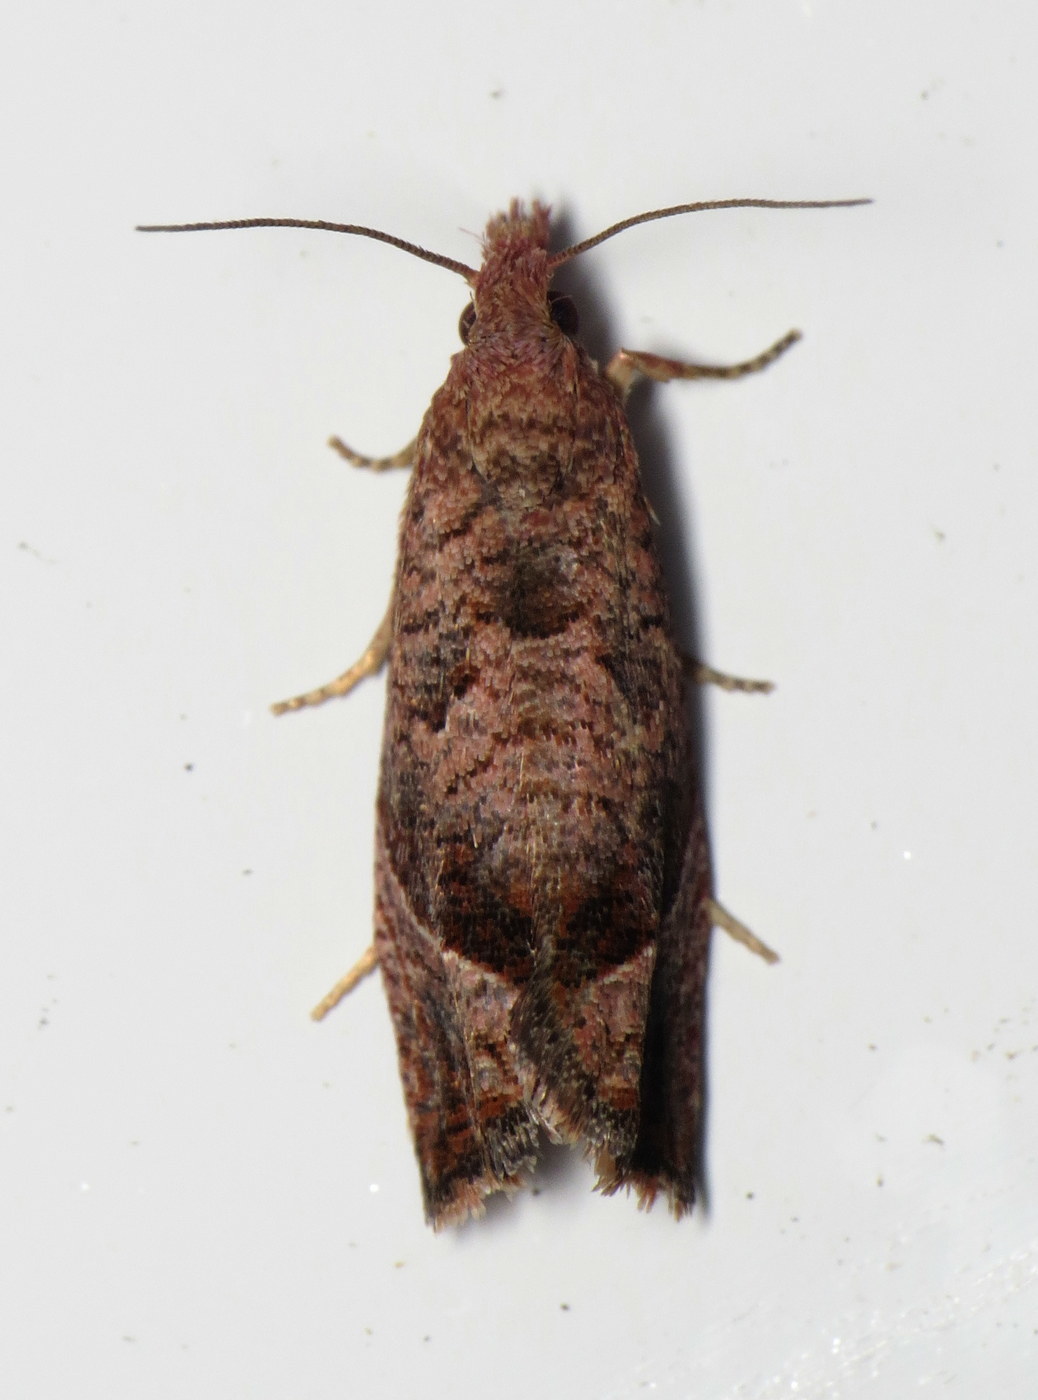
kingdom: Animalia
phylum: Arthropoda
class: Insecta
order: Lepidoptera
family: Tortricidae
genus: Pelochrista
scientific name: Pelochrista derelicta
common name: Derelict pelochrista moth
